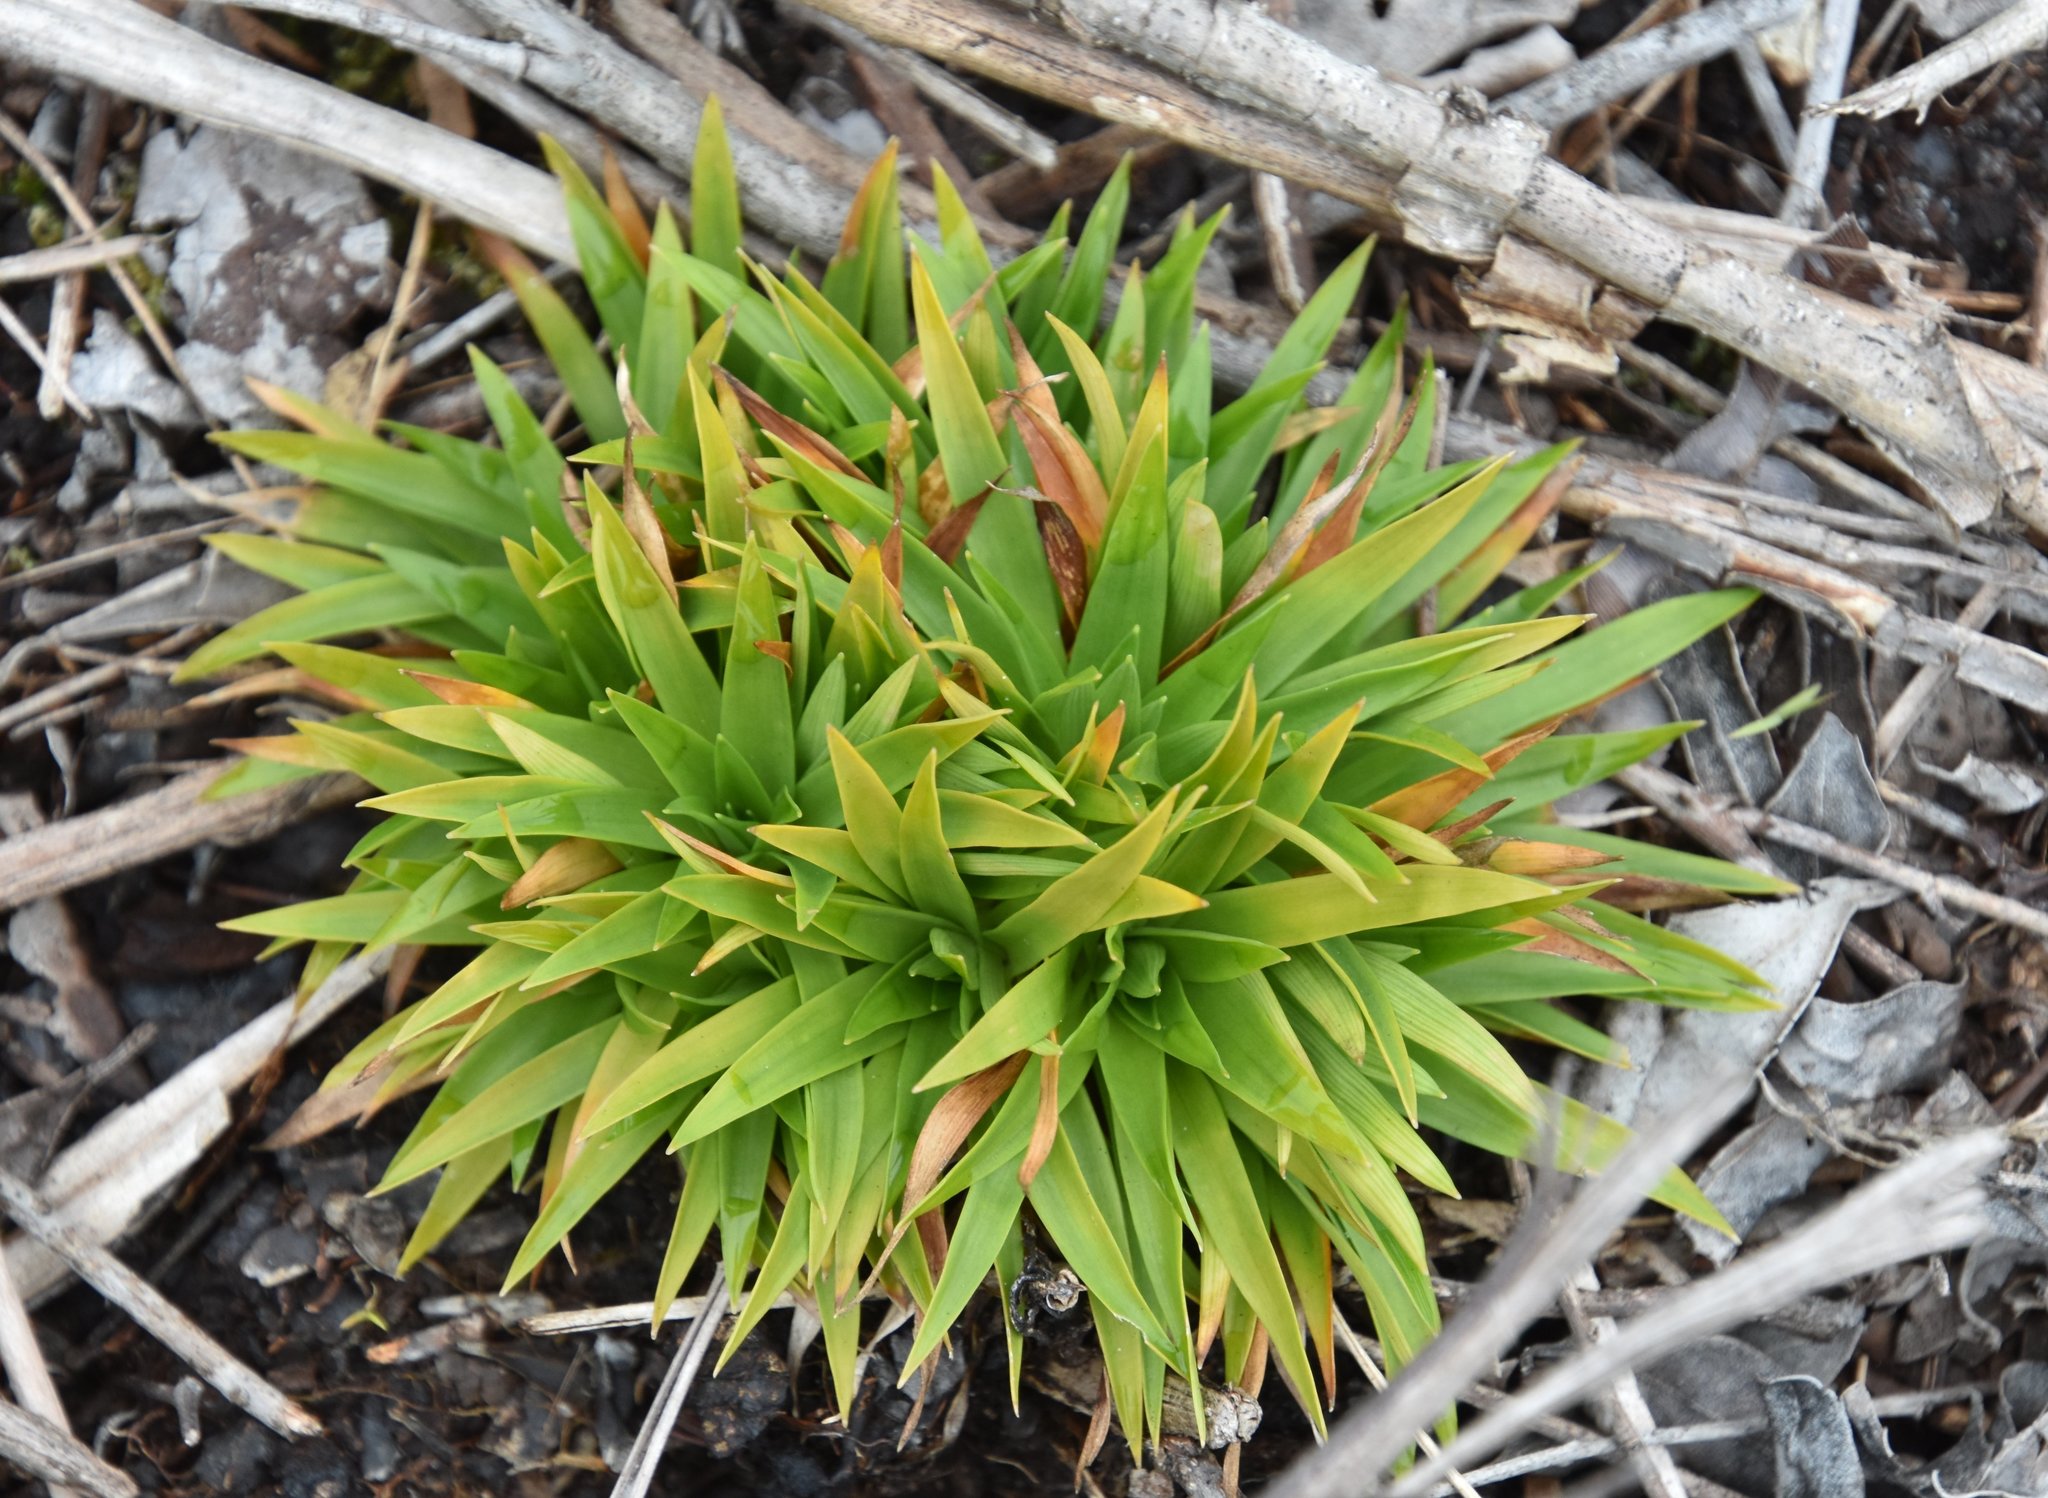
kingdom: Plantae
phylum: Tracheophyta
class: Liliopsida
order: Poales
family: Eriocaulaceae
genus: Paepalanthus
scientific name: Paepalanthus anceps
